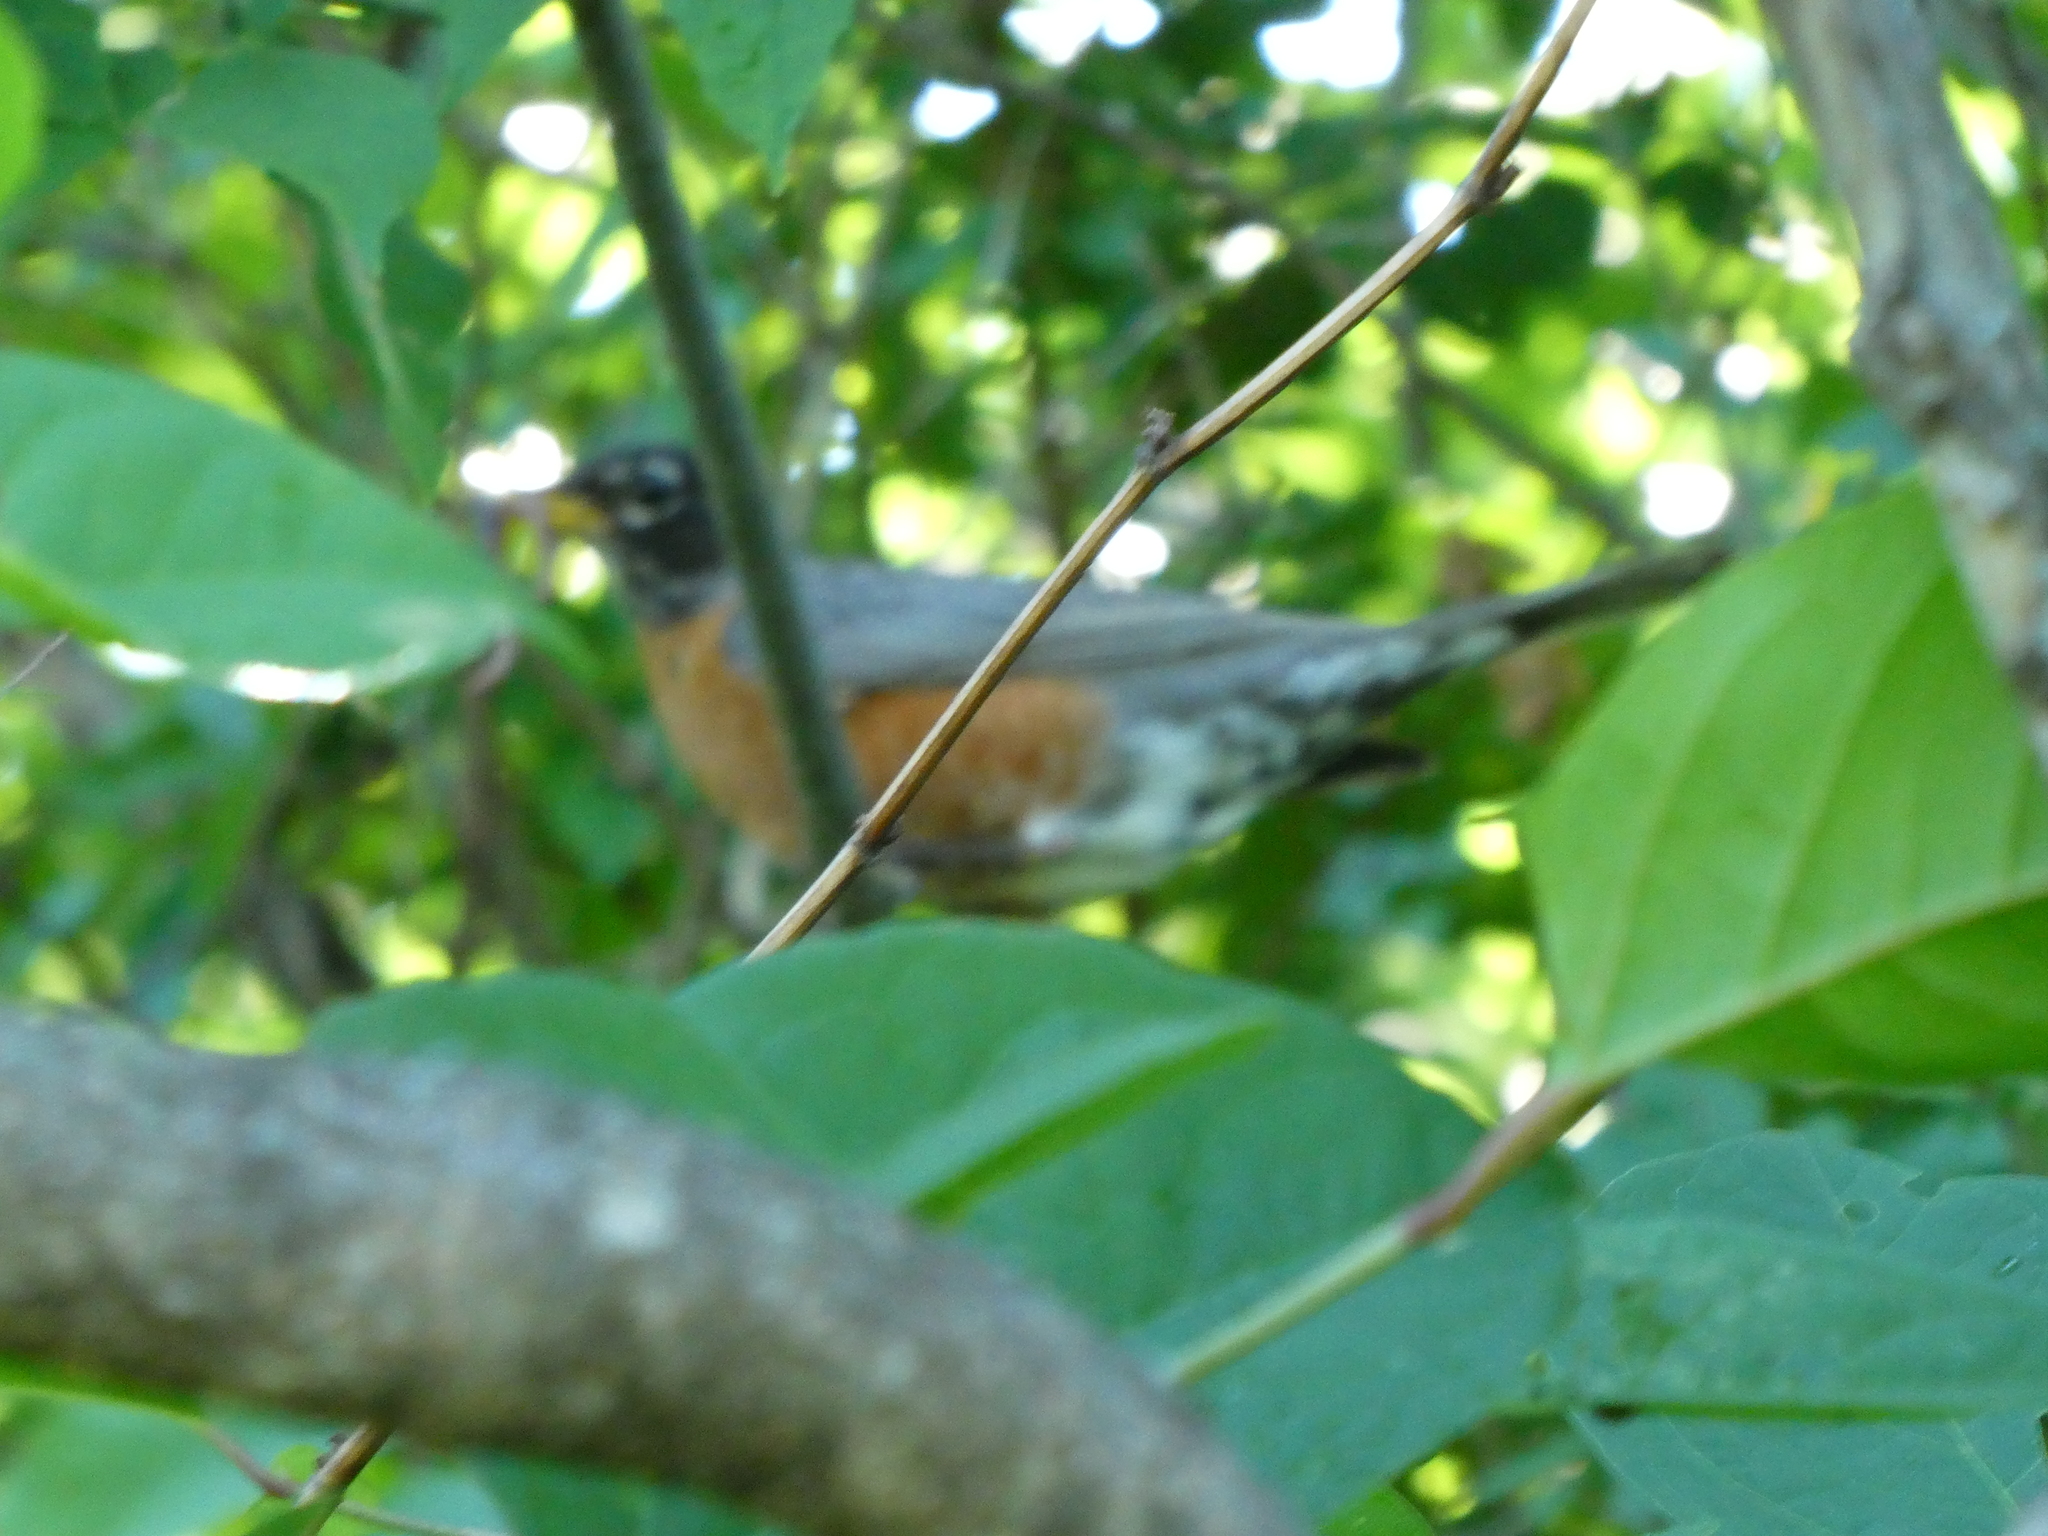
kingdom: Animalia
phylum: Chordata
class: Aves
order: Passeriformes
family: Turdidae
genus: Turdus
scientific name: Turdus migratorius
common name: American robin
